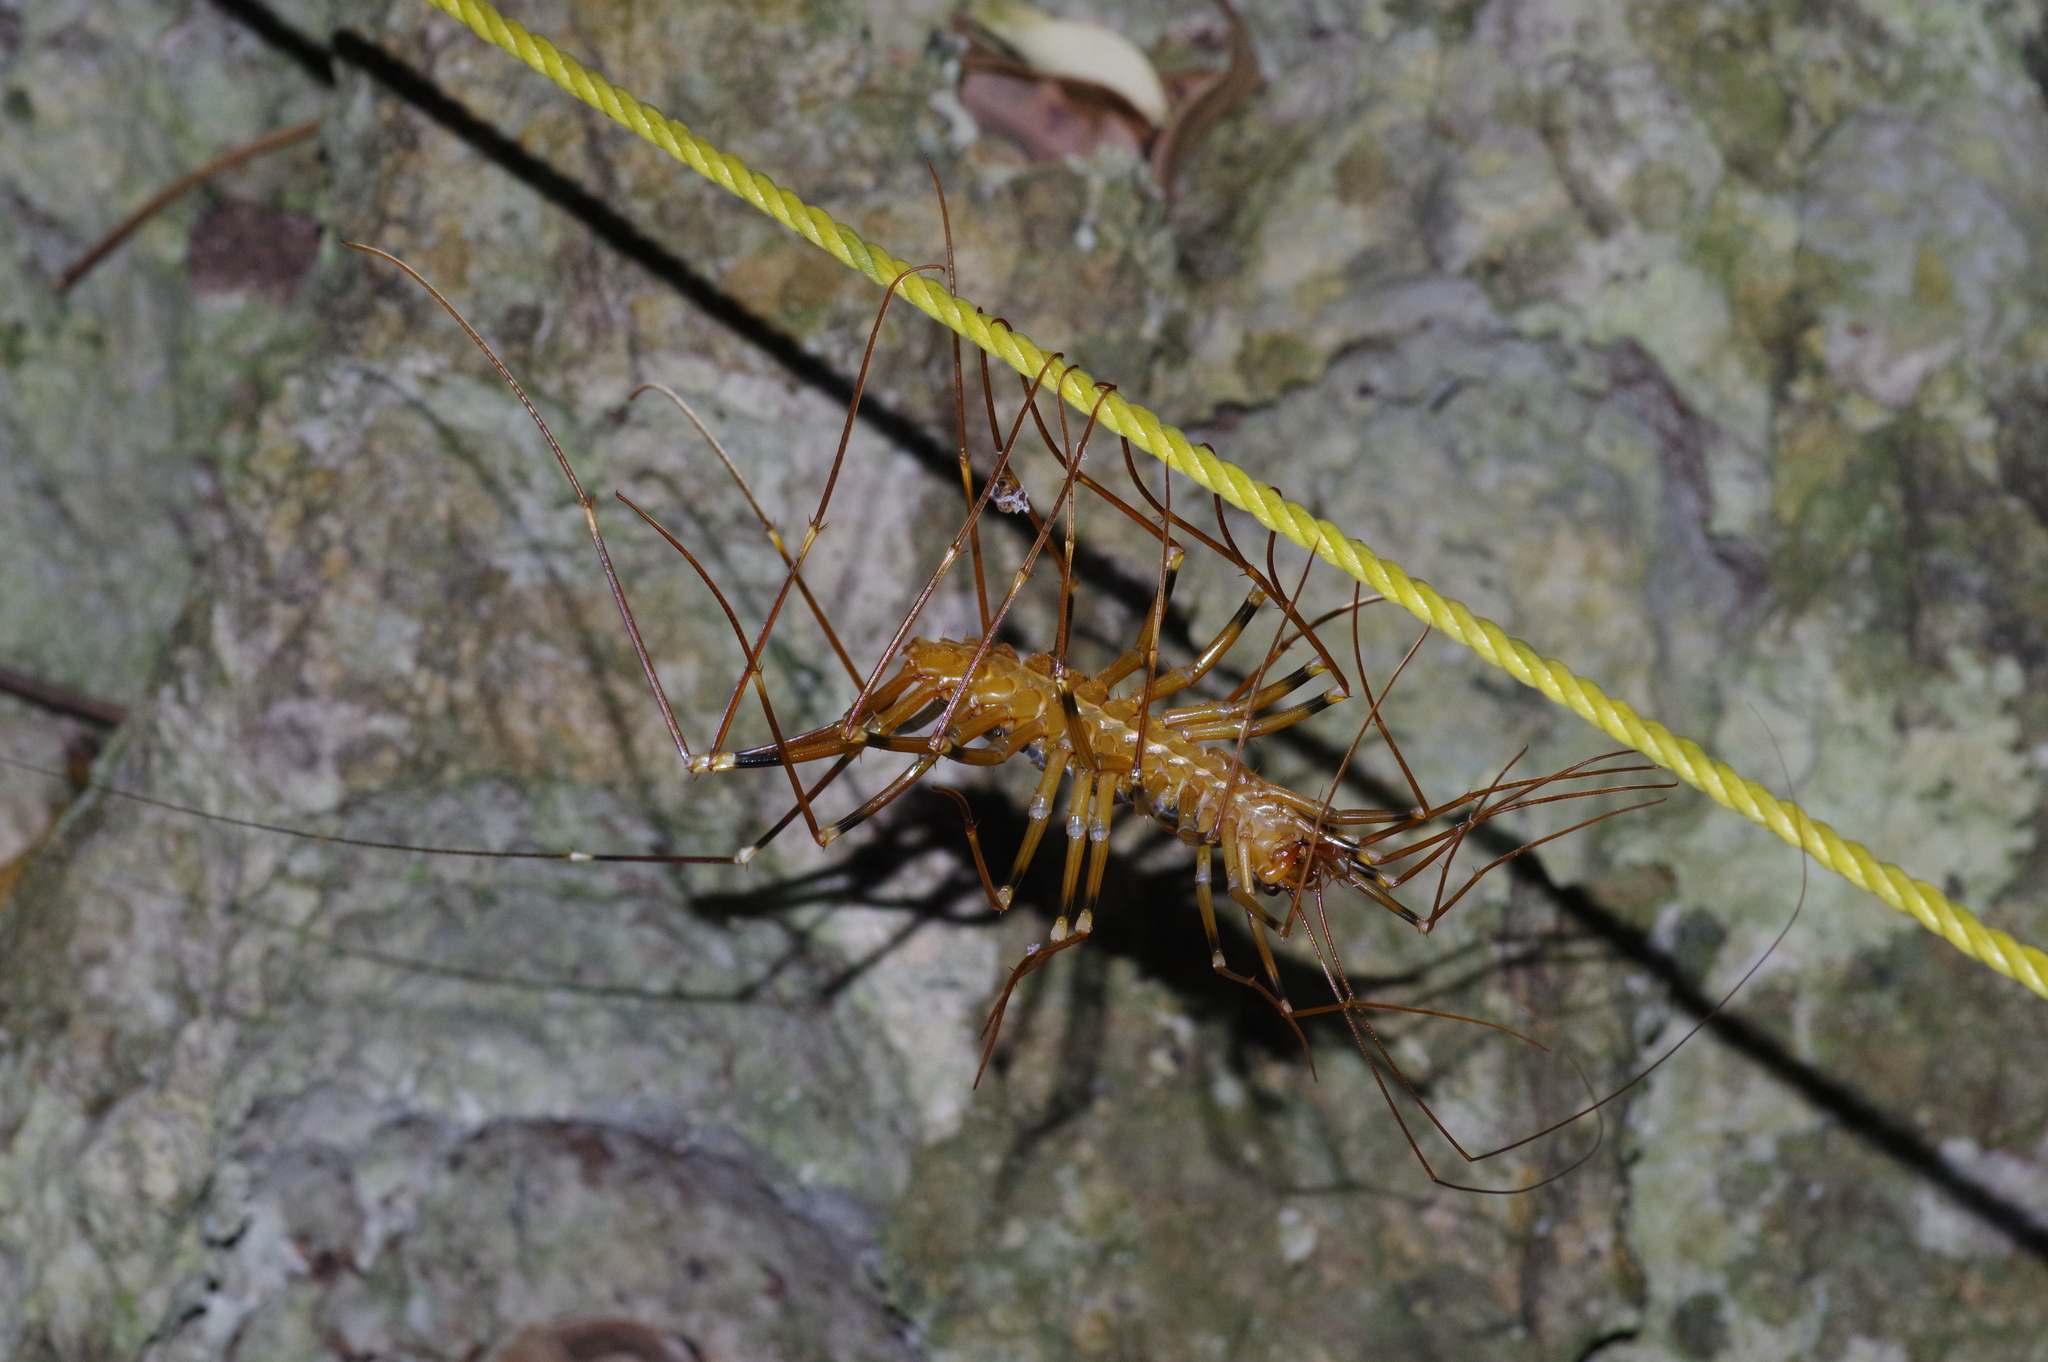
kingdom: Animalia
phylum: Arthropoda
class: Chilopoda
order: Scutigeromorpha
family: Scutigeridae
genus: Thereuopoda
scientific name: Thereuopoda clunifera
